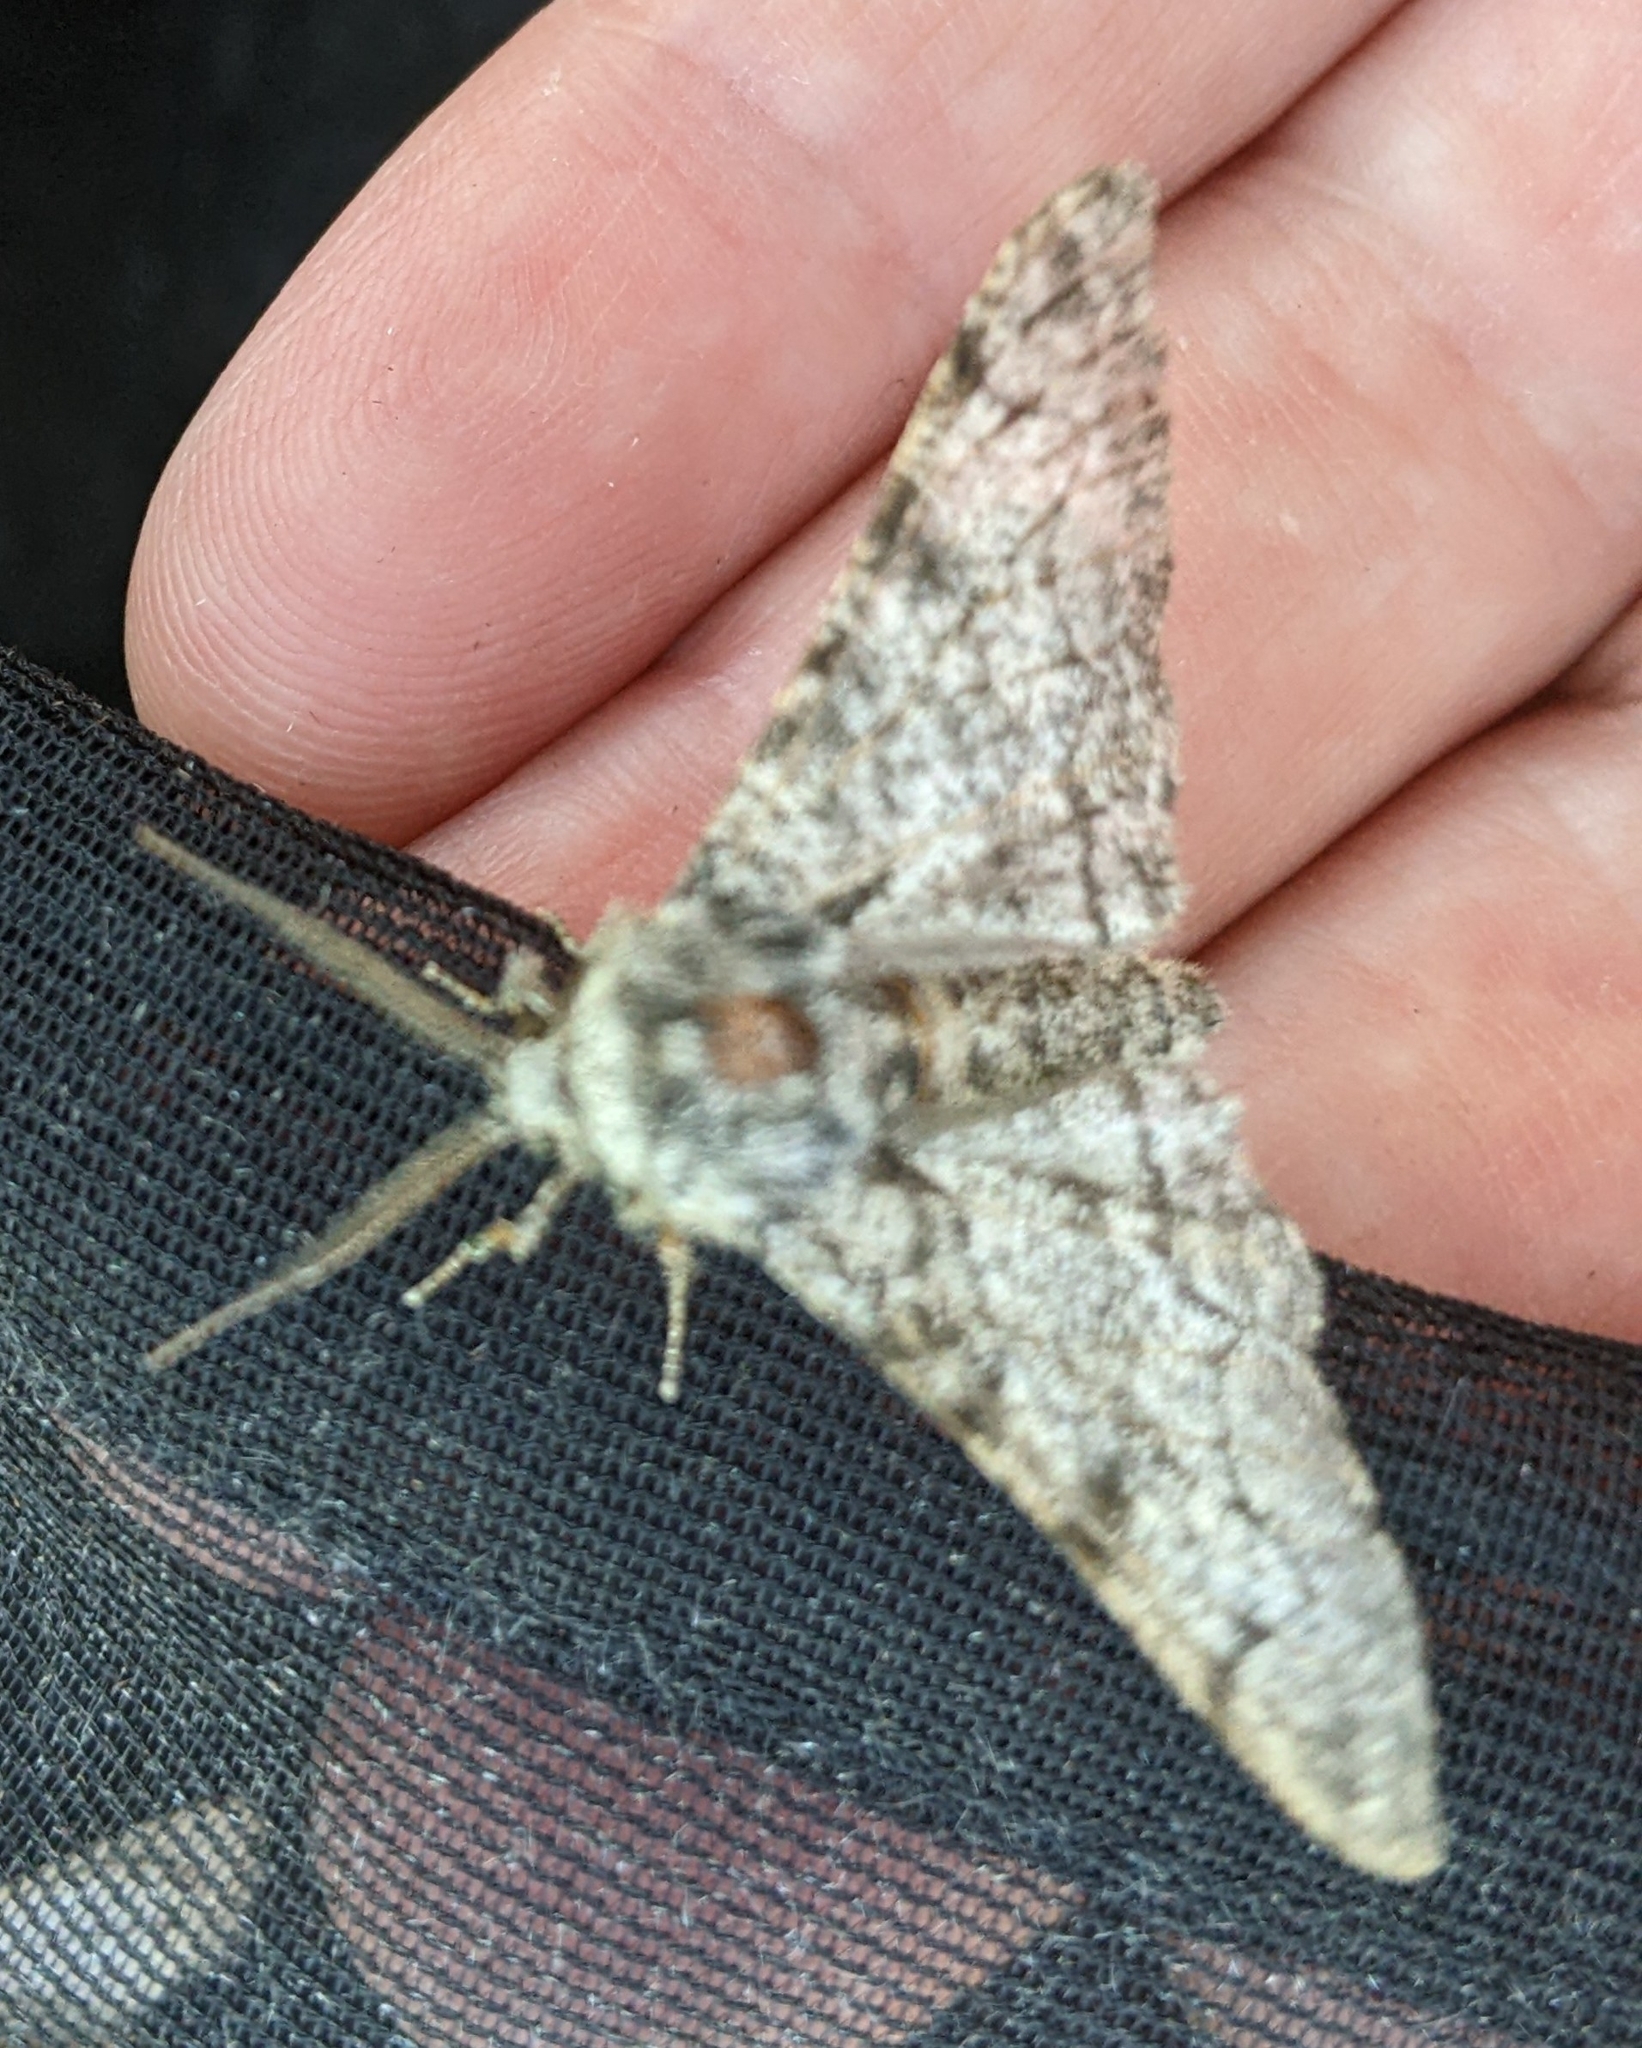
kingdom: Animalia
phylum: Arthropoda
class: Insecta
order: Lepidoptera
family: Geometridae
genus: Biston
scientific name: Biston betularia
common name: Peppered moth
